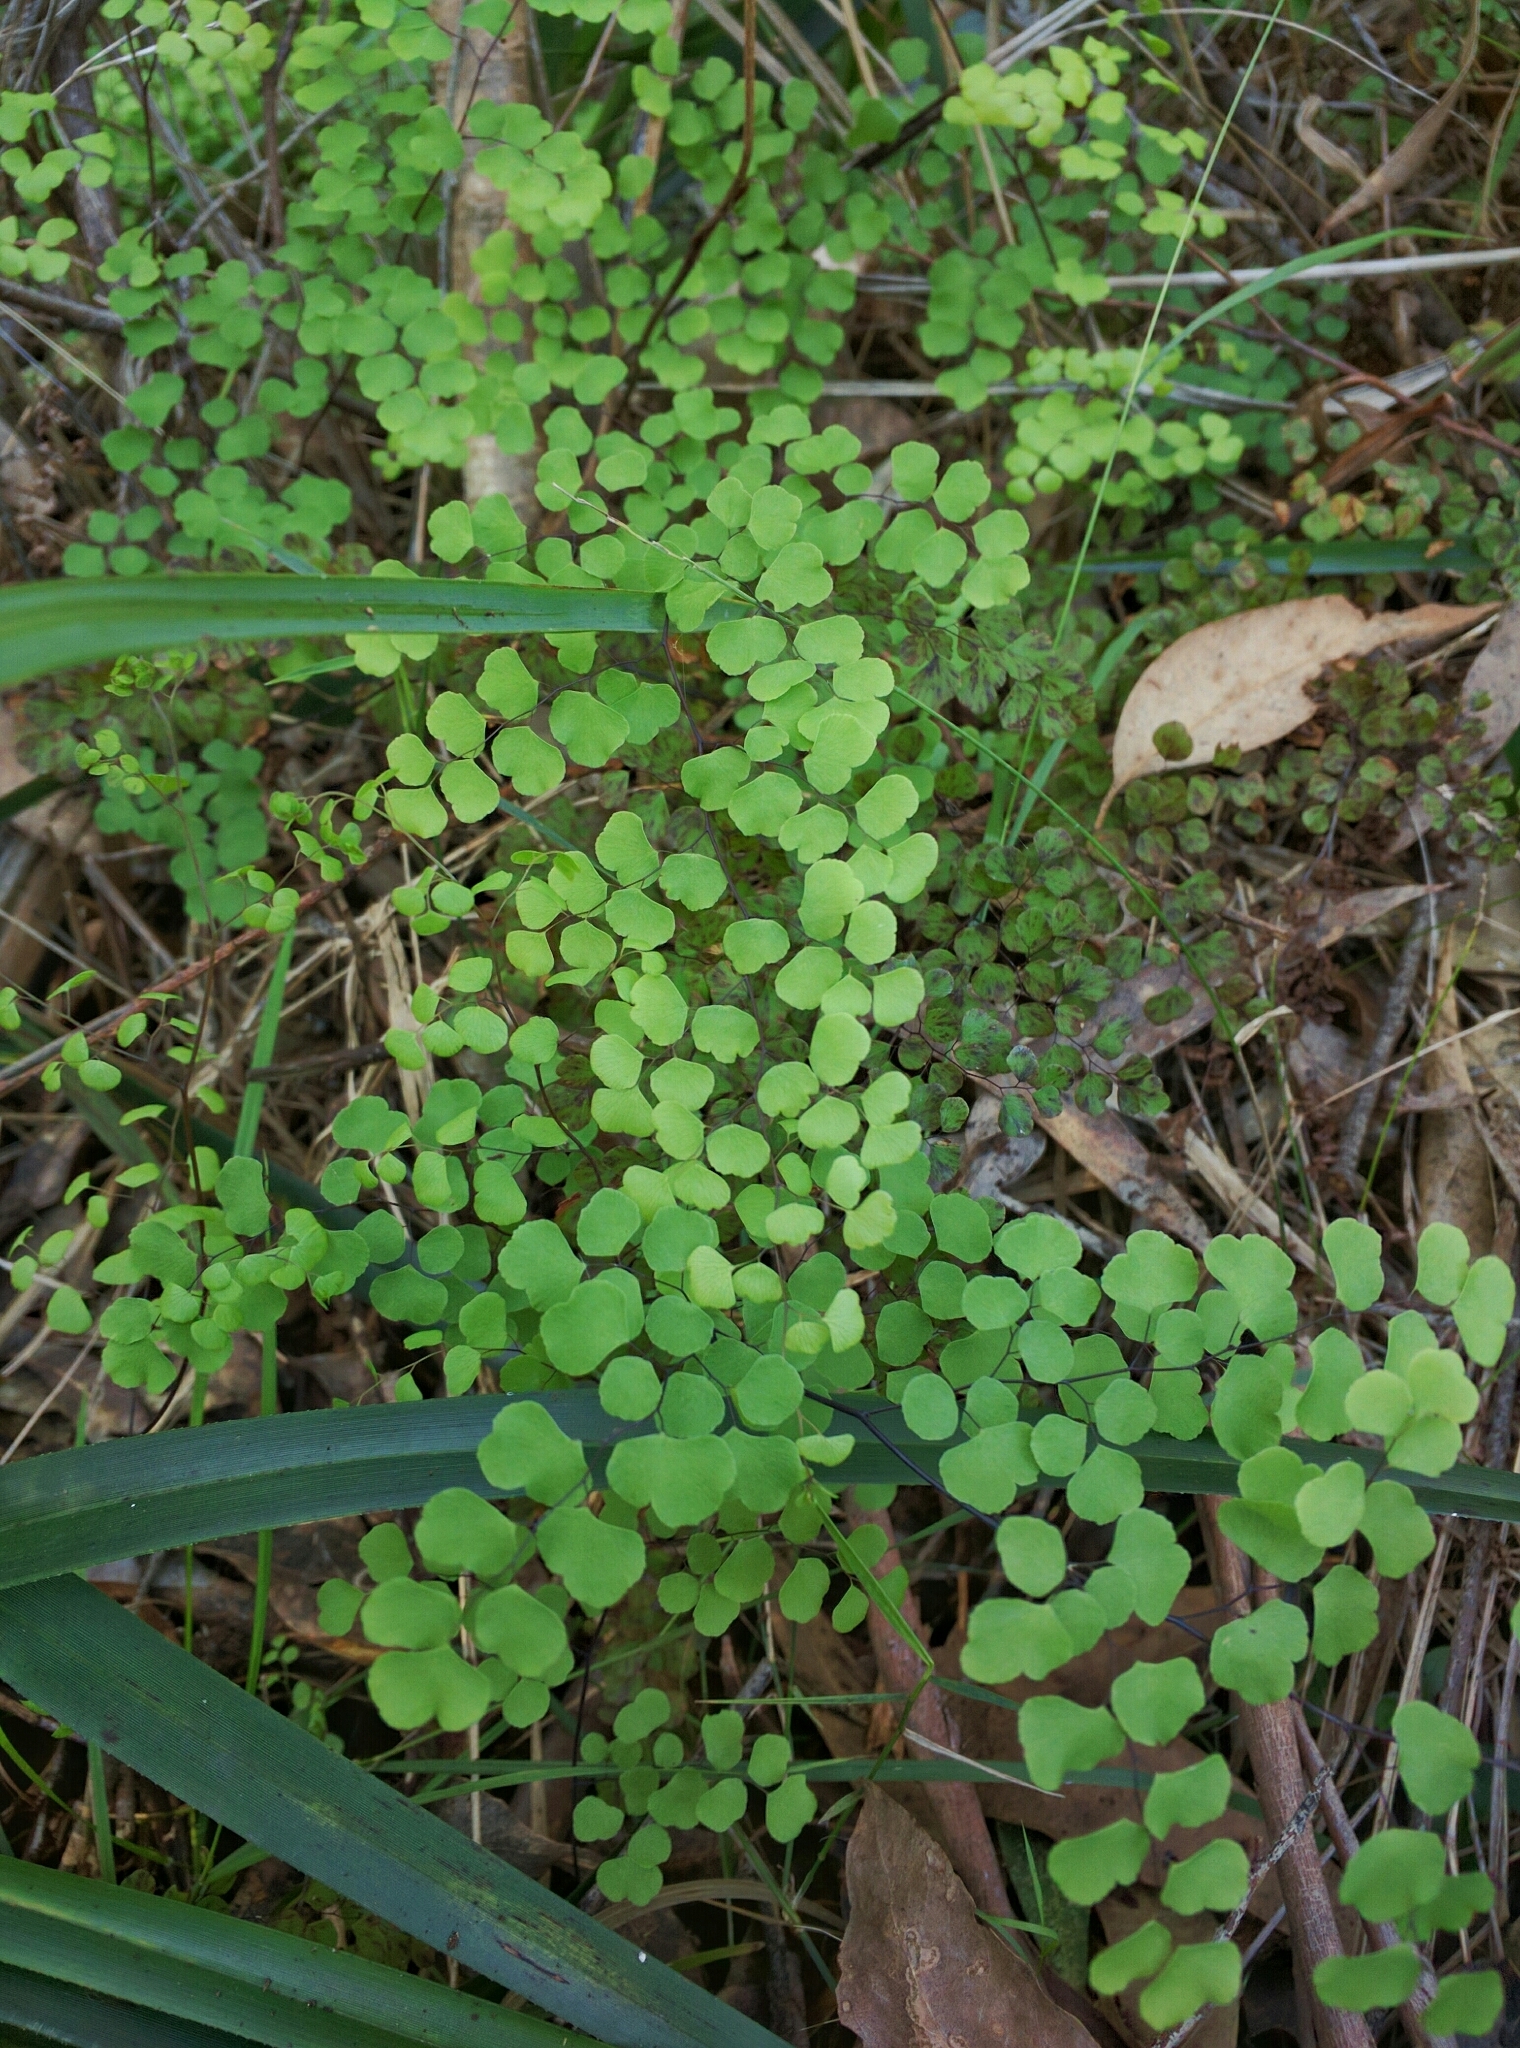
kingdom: Plantae
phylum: Tracheophyta
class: Polypodiopsida
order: Polypodiales
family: Pteridaceae
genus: Adiantum
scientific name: Adiantum aethiopicum
